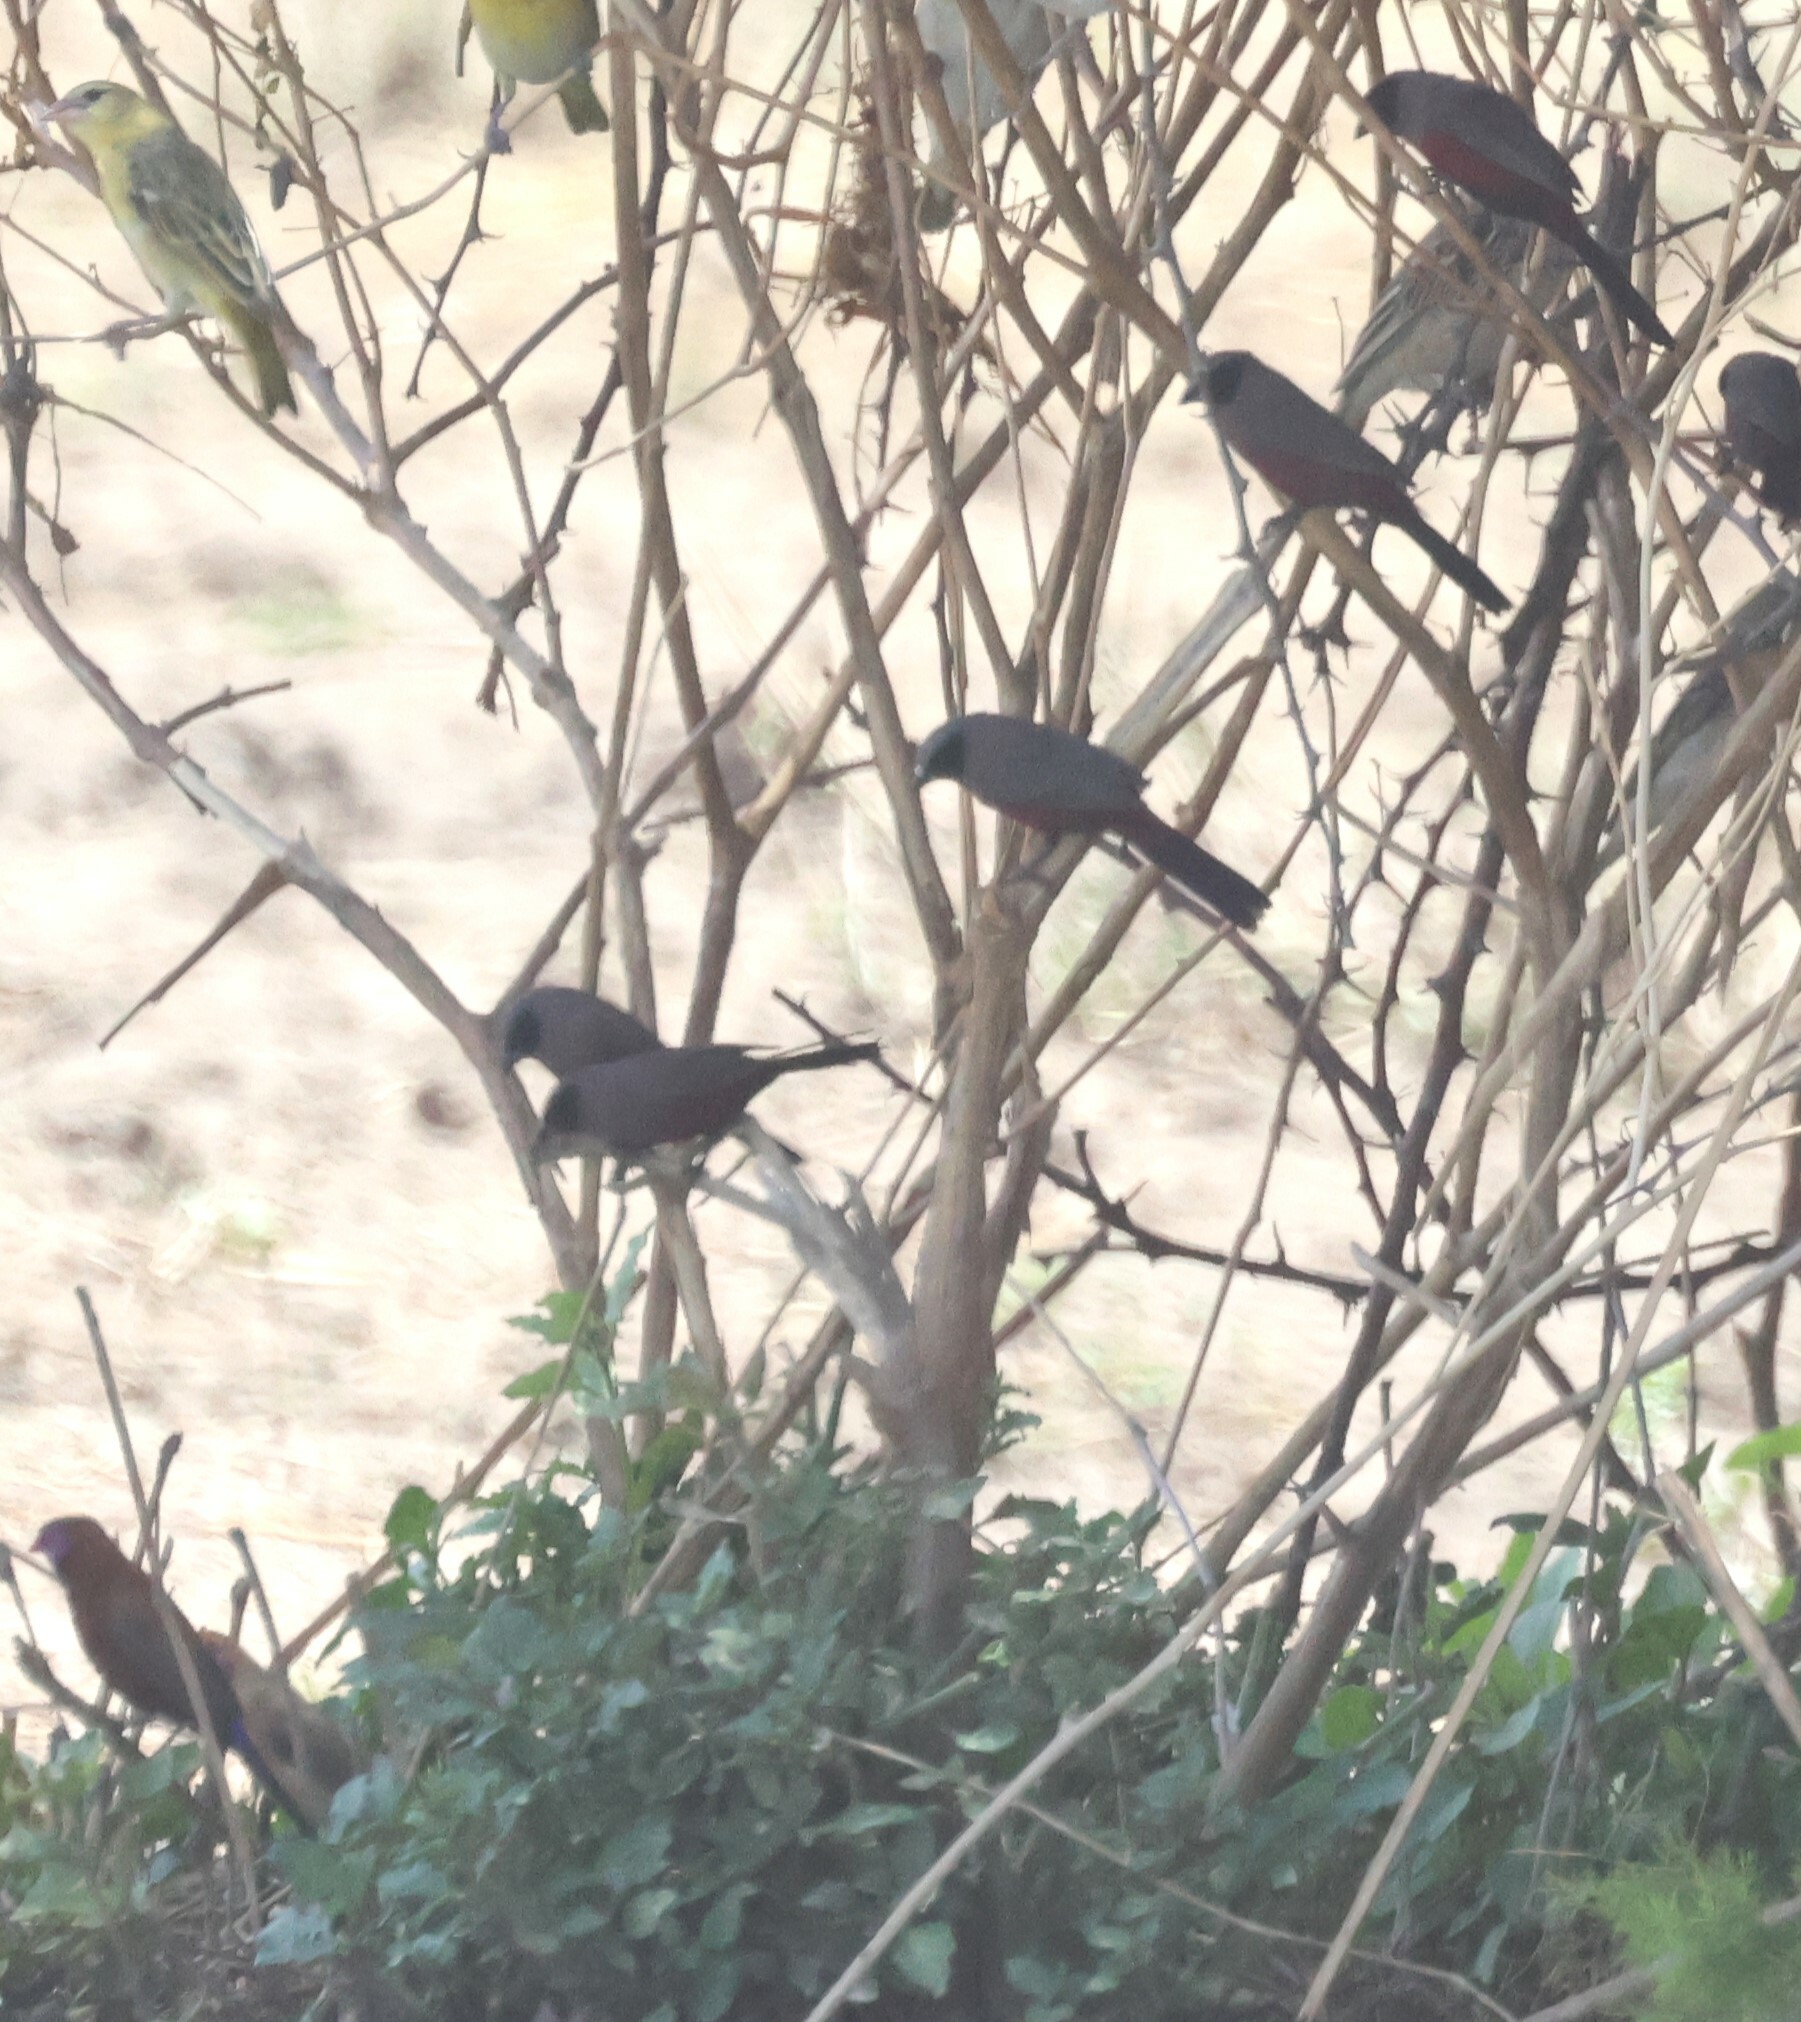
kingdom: Animalia
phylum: Chordata
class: Aves
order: Passeriformes
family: Estrildidae
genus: Estrilda
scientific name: Estrilda erythronotos
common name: Black-faced waxbill
